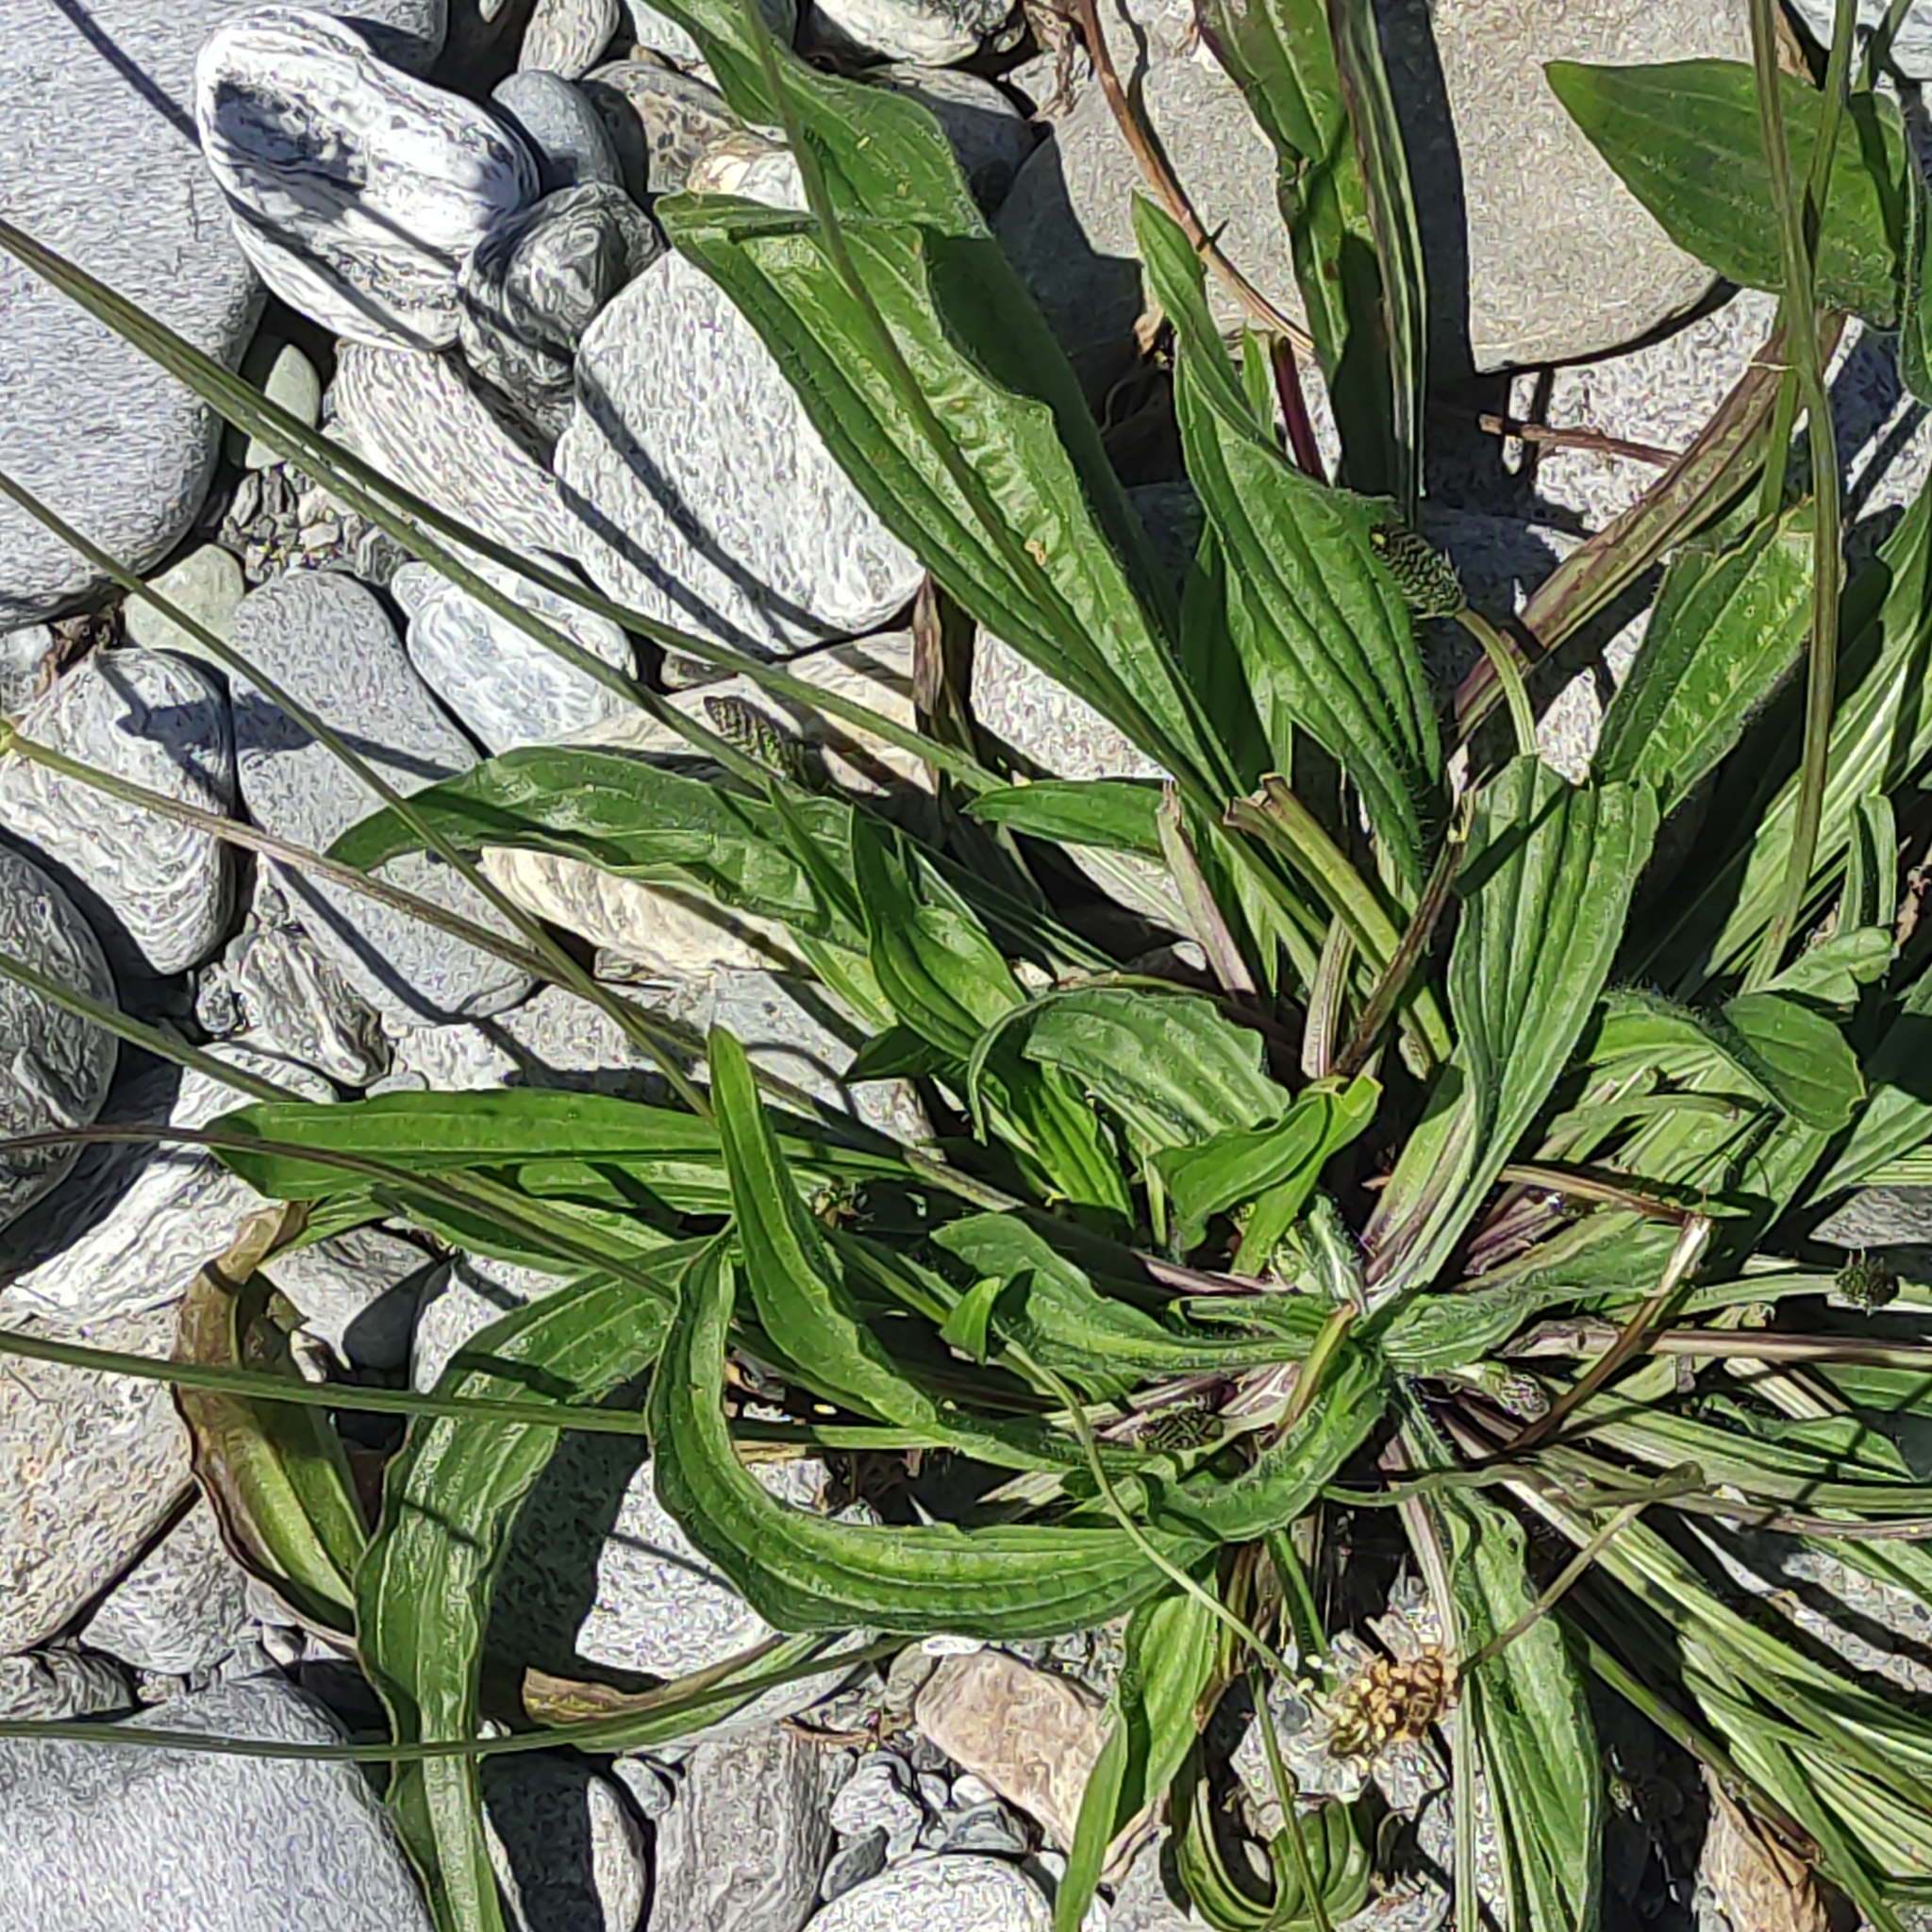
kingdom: Plantae
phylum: Tracheophyta
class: Magnoliopsida
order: Lamiales
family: Plantaginaceae
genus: Plantago
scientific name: Plantago lanceolata
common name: Ribwort plantain
